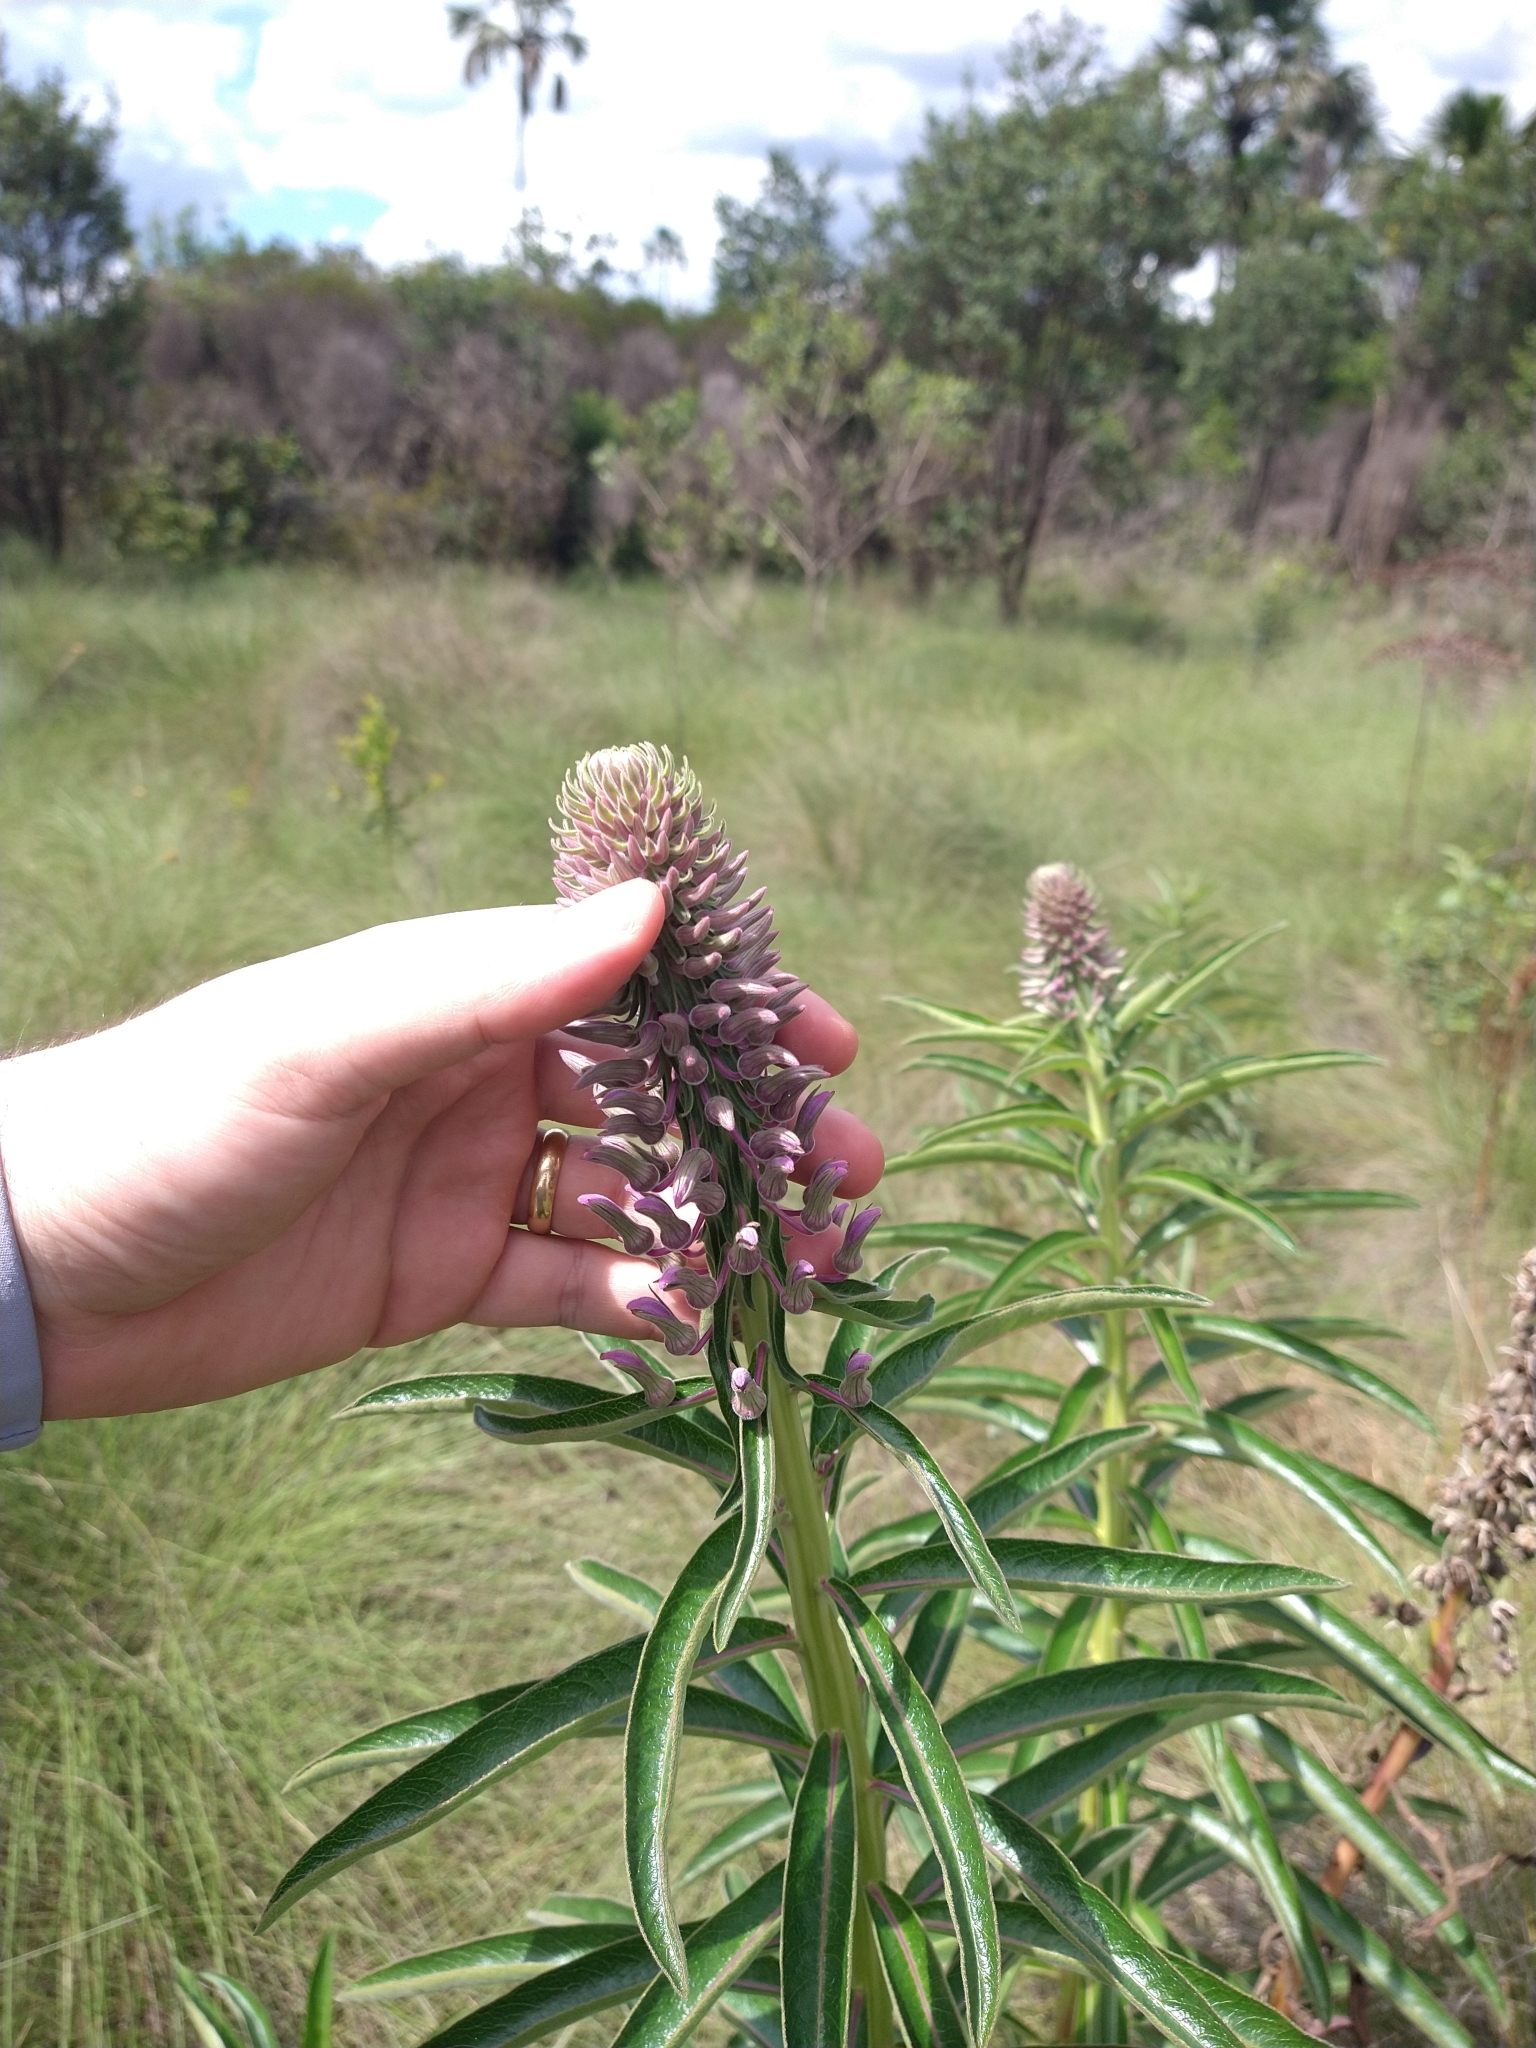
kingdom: Plantae
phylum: Tracheophyta
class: Magnoliopsida
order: Asterales
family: Campanulaceae
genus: Lobelia
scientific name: Lobelia brasiliensis
